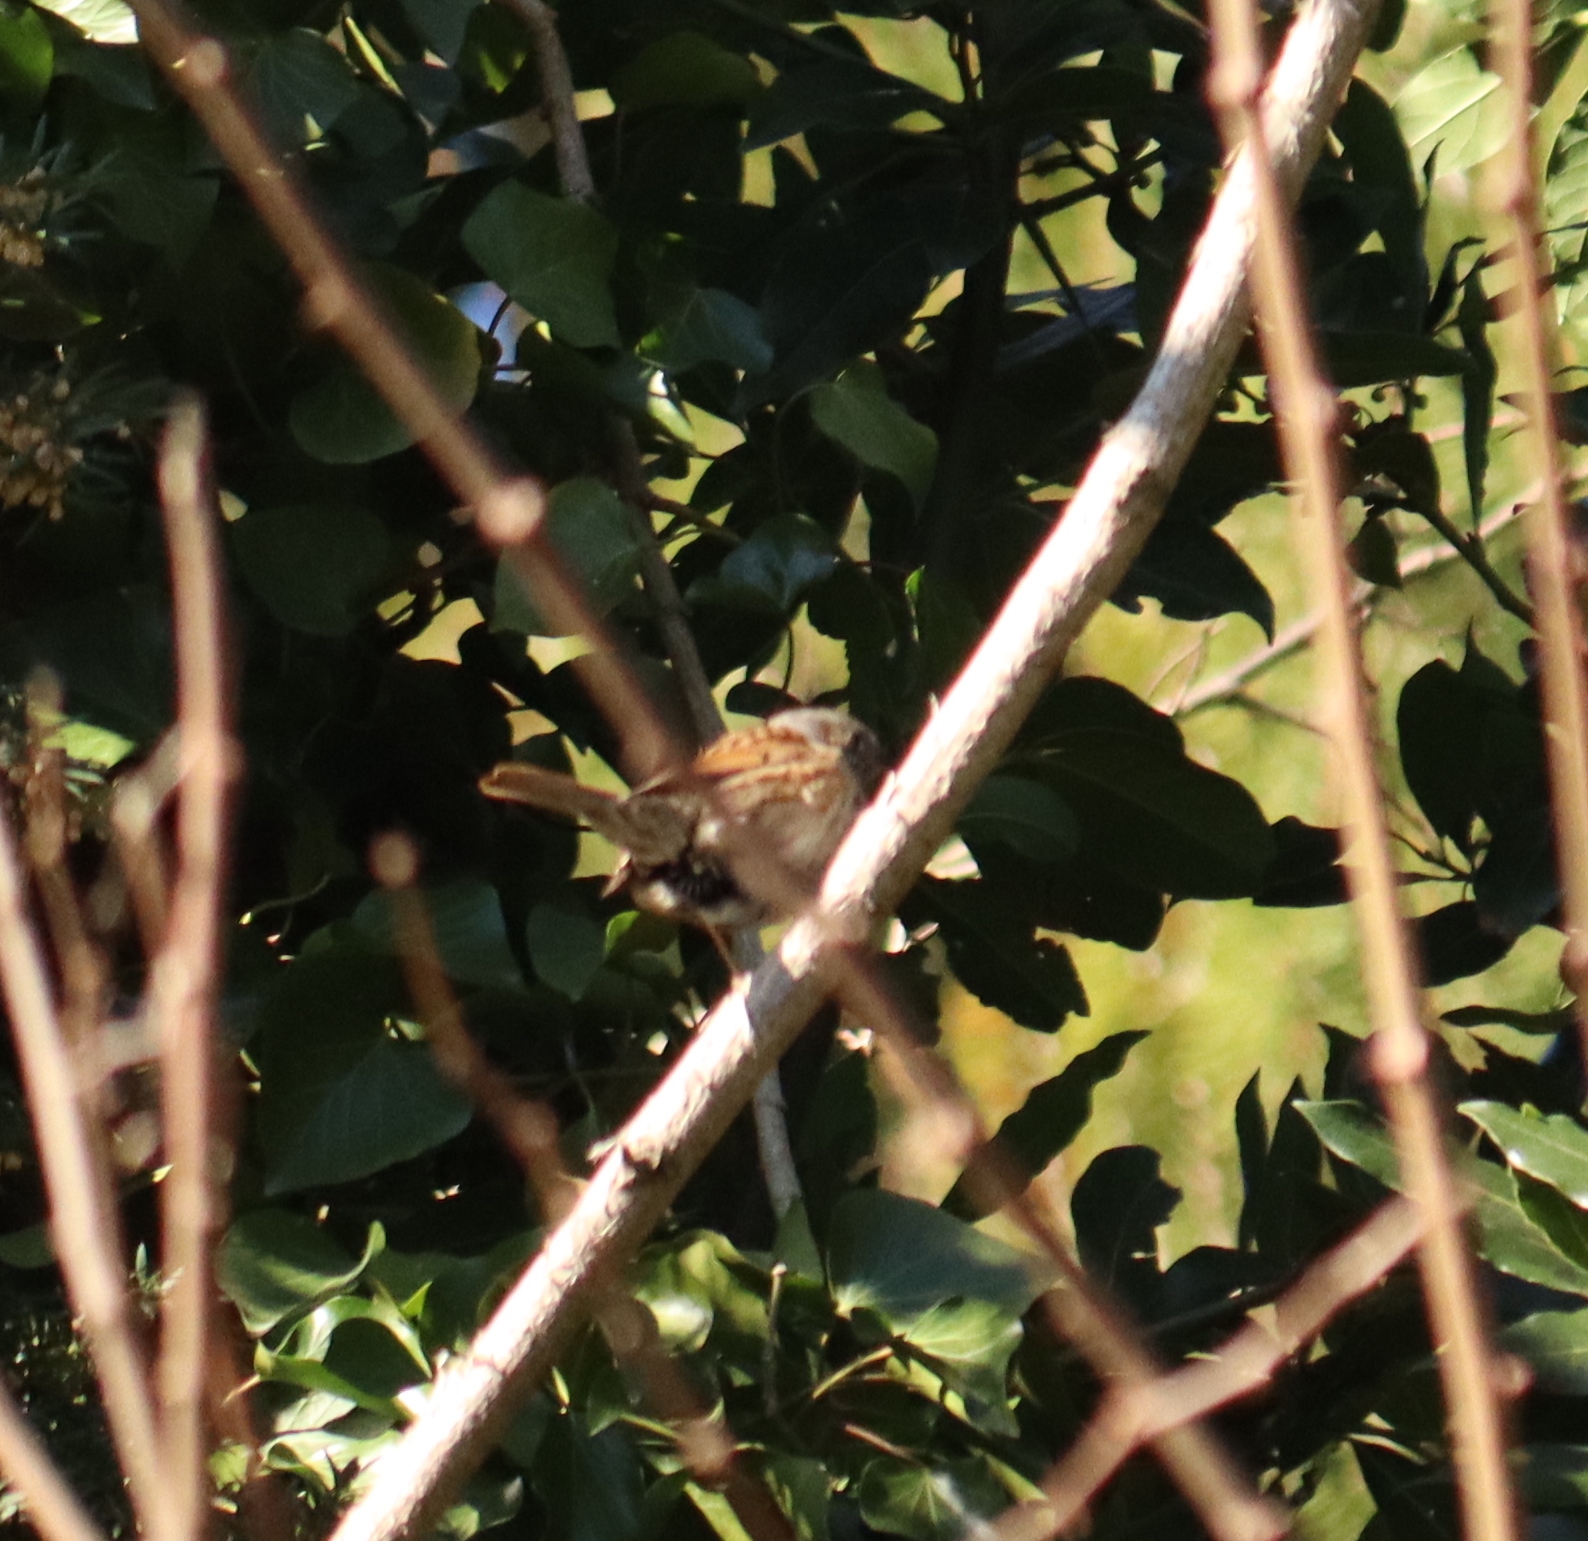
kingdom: Animalia
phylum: Chordata
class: Aves
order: Passeriformes
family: Prunellidae
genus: Prunella
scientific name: Prunella modularis
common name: Dunnock
